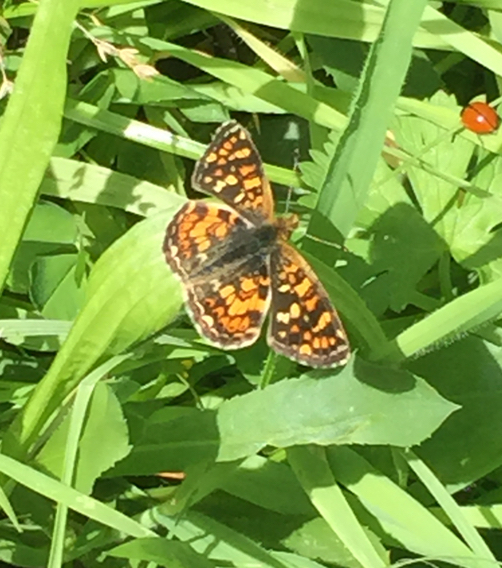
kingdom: Animalia
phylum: Arthropoda
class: Insecta
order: Lepidoptera
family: Nymphalidae
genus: Phyciodes
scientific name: Phyciodes tharos
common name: Pearl crescent
